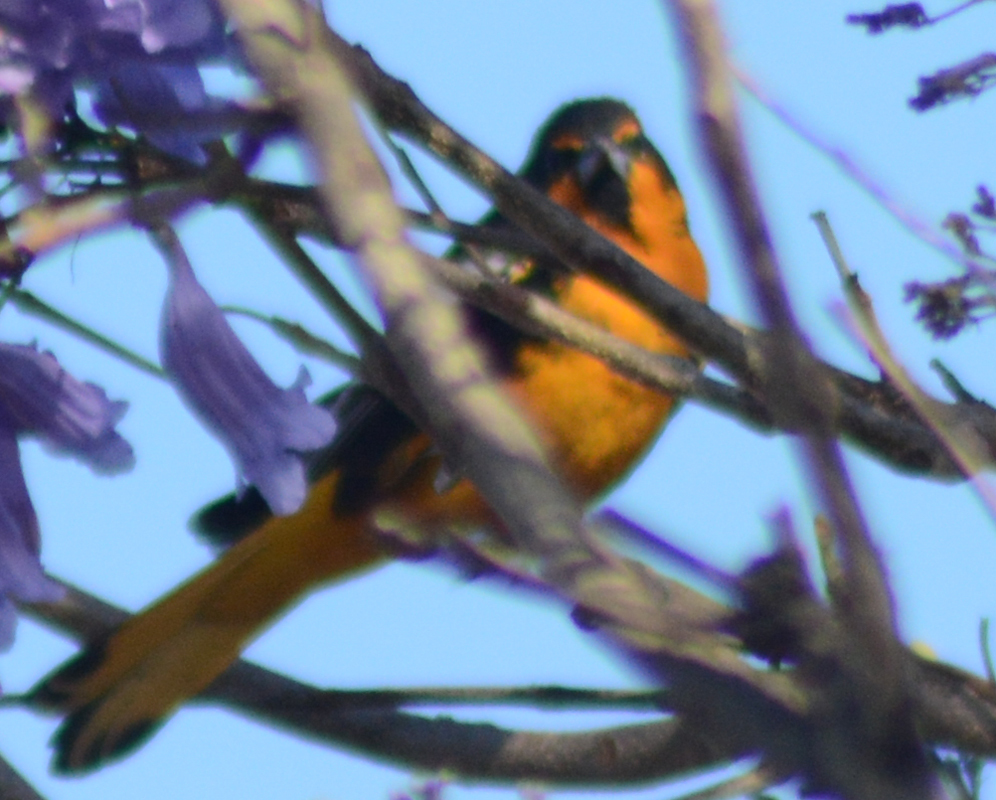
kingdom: Animalia
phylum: Chordata
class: Aves
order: Passeriformes
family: Icteridae
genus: Icterus
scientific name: Icterus abeillei
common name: Black-backed oriole
